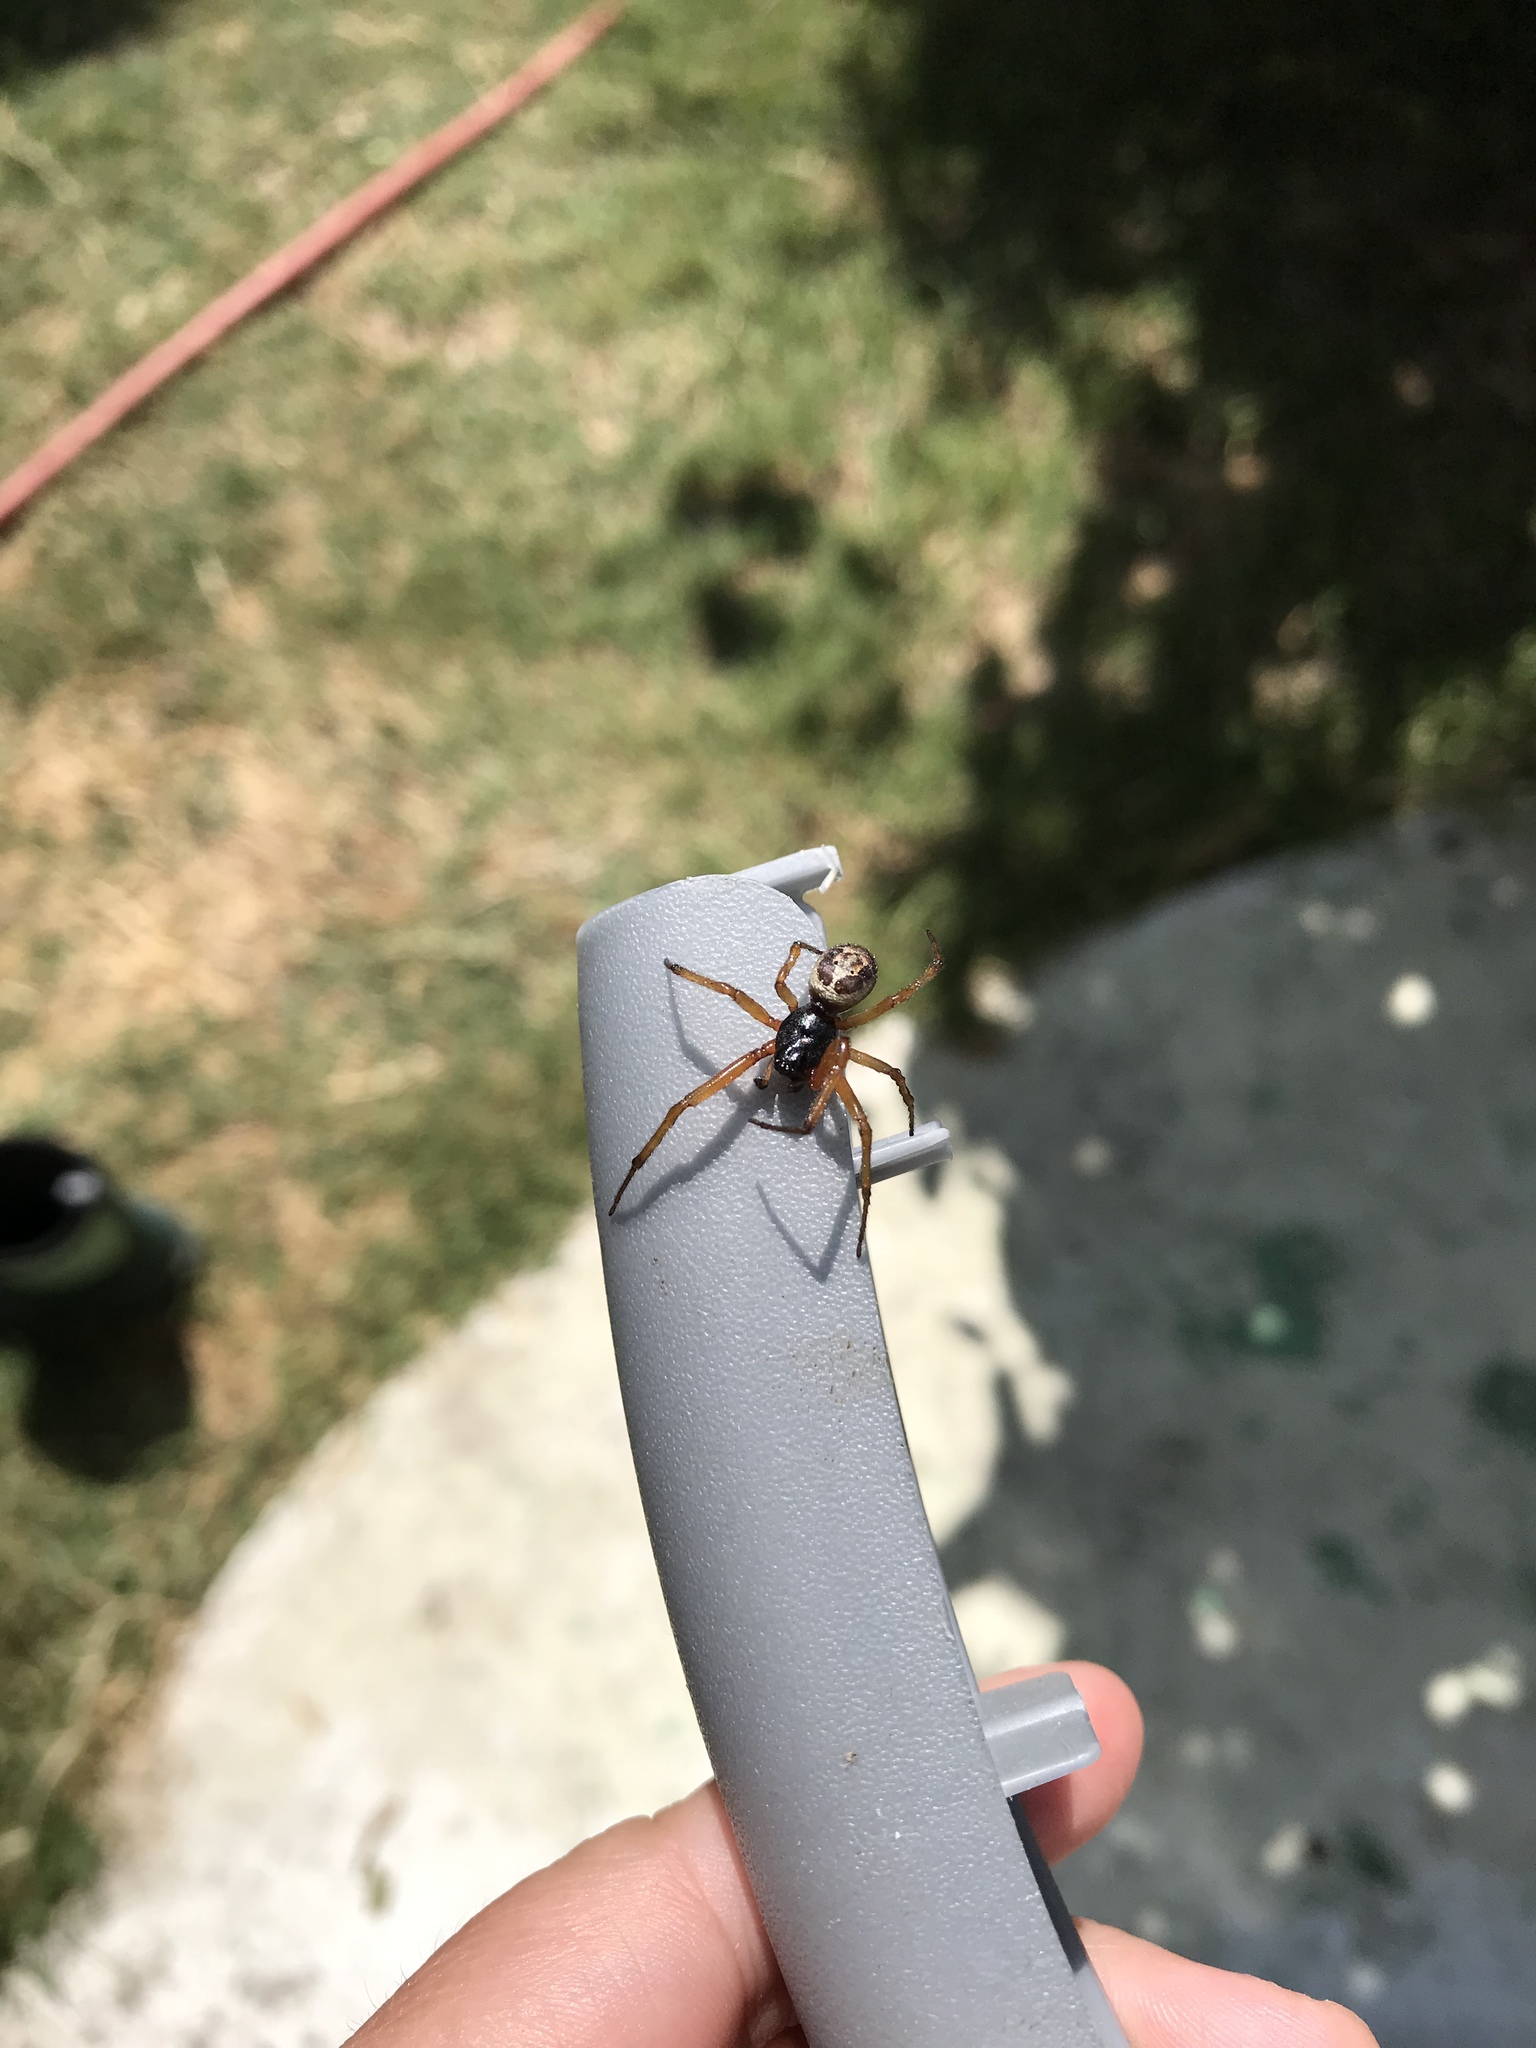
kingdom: Animalia
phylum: Arthropoda
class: Arachnida
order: Araneae
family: Theridiidae
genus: Steatoda
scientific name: Steatoda nobilis
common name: Cobweb weaver
